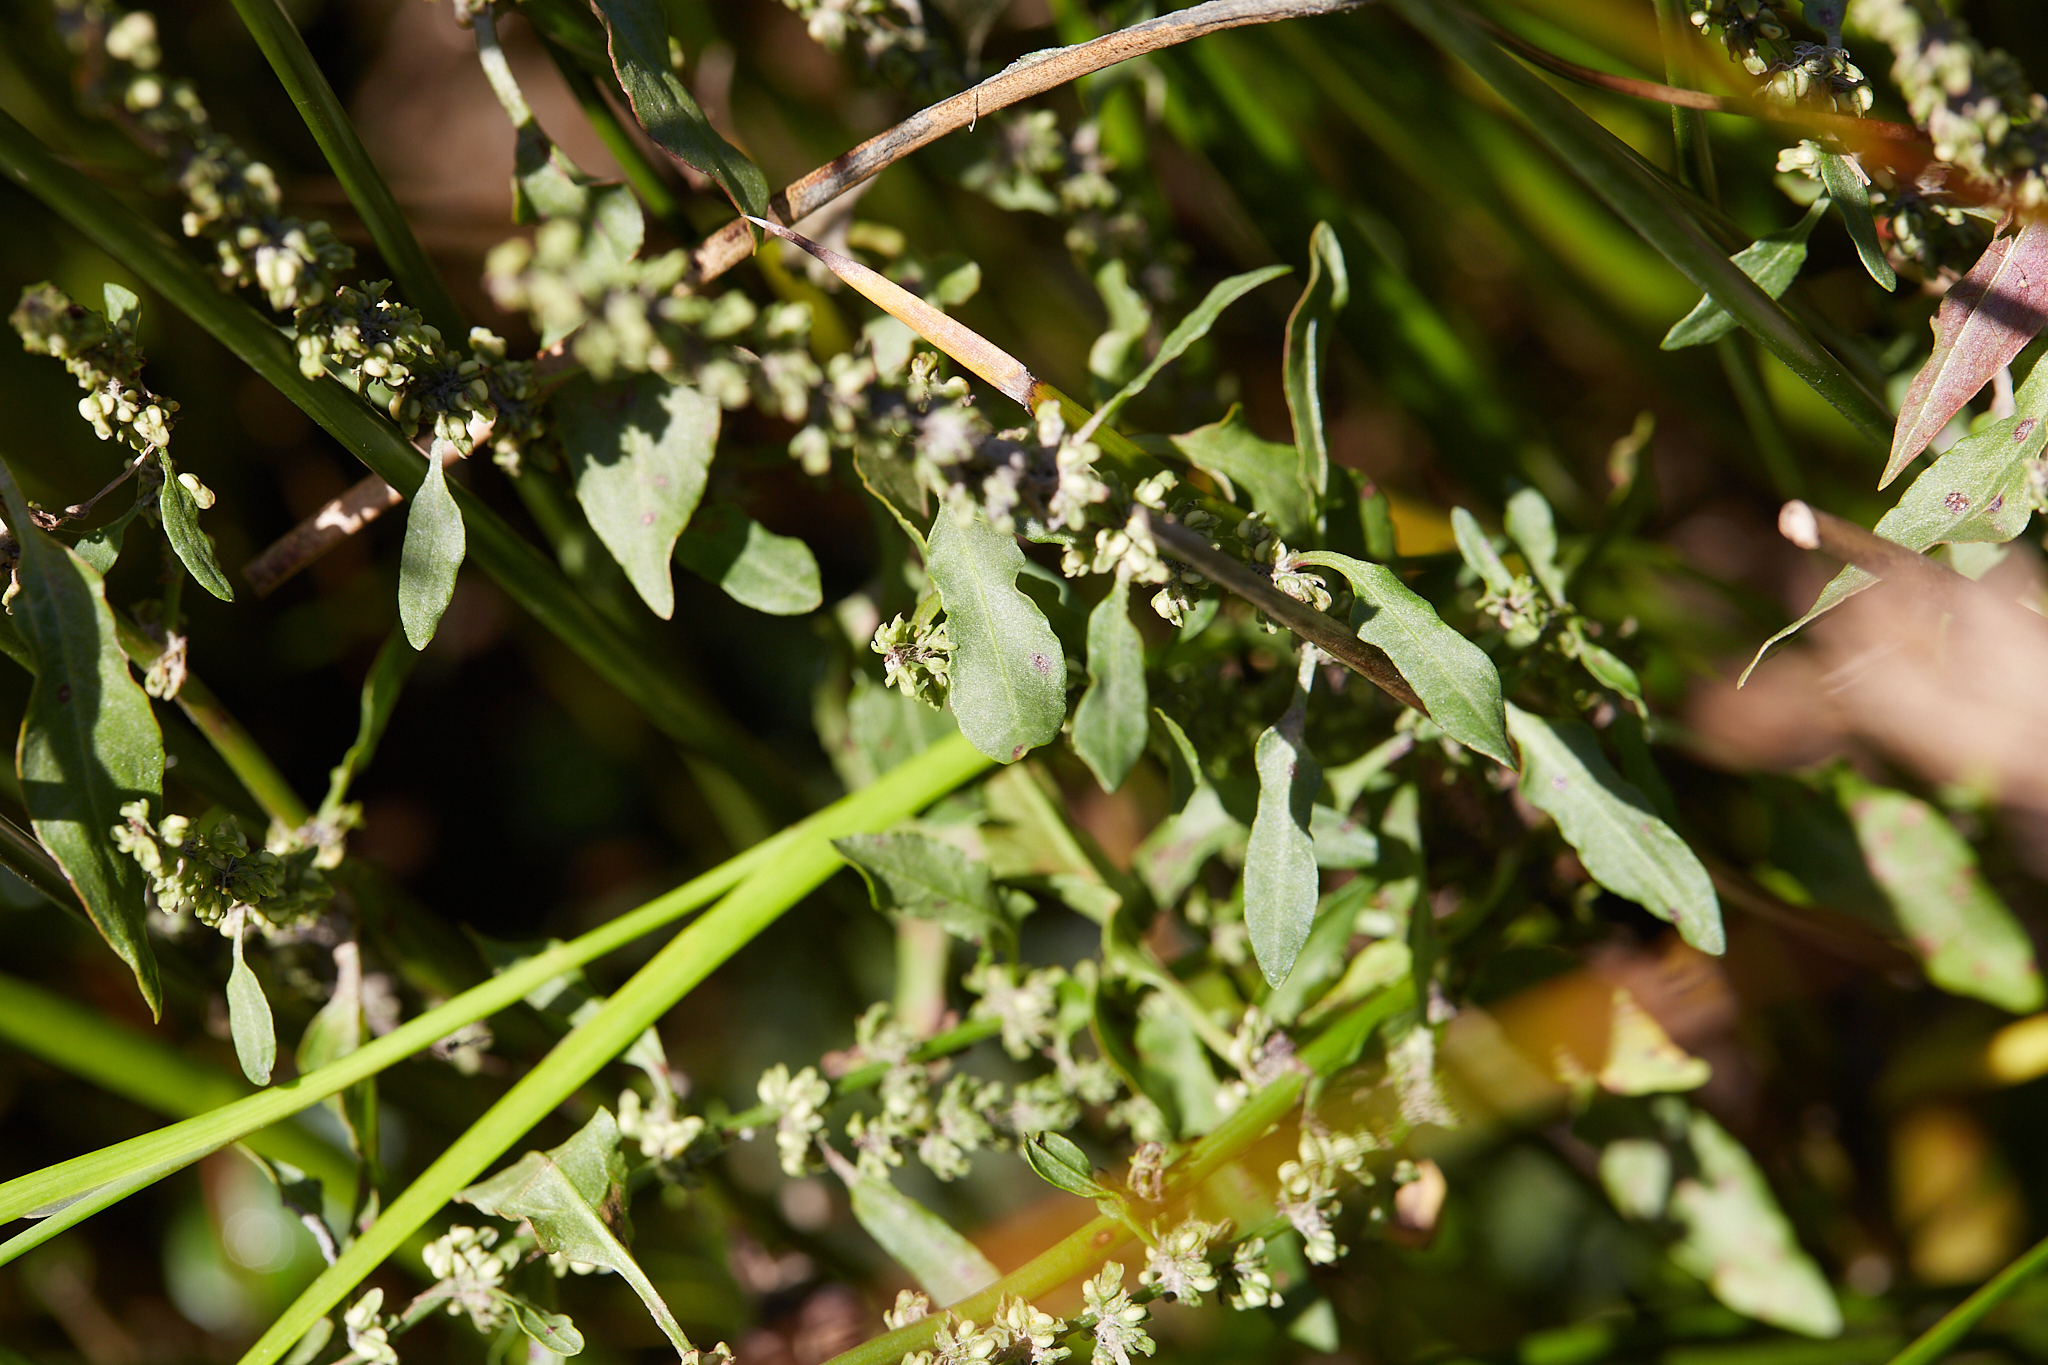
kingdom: Plantae
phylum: Tracheophyta
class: Magnoliopsida
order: Caryophyllales
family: Polygonaceae
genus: Rumex
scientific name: Rumex conglomeratus
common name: Clustered dock
